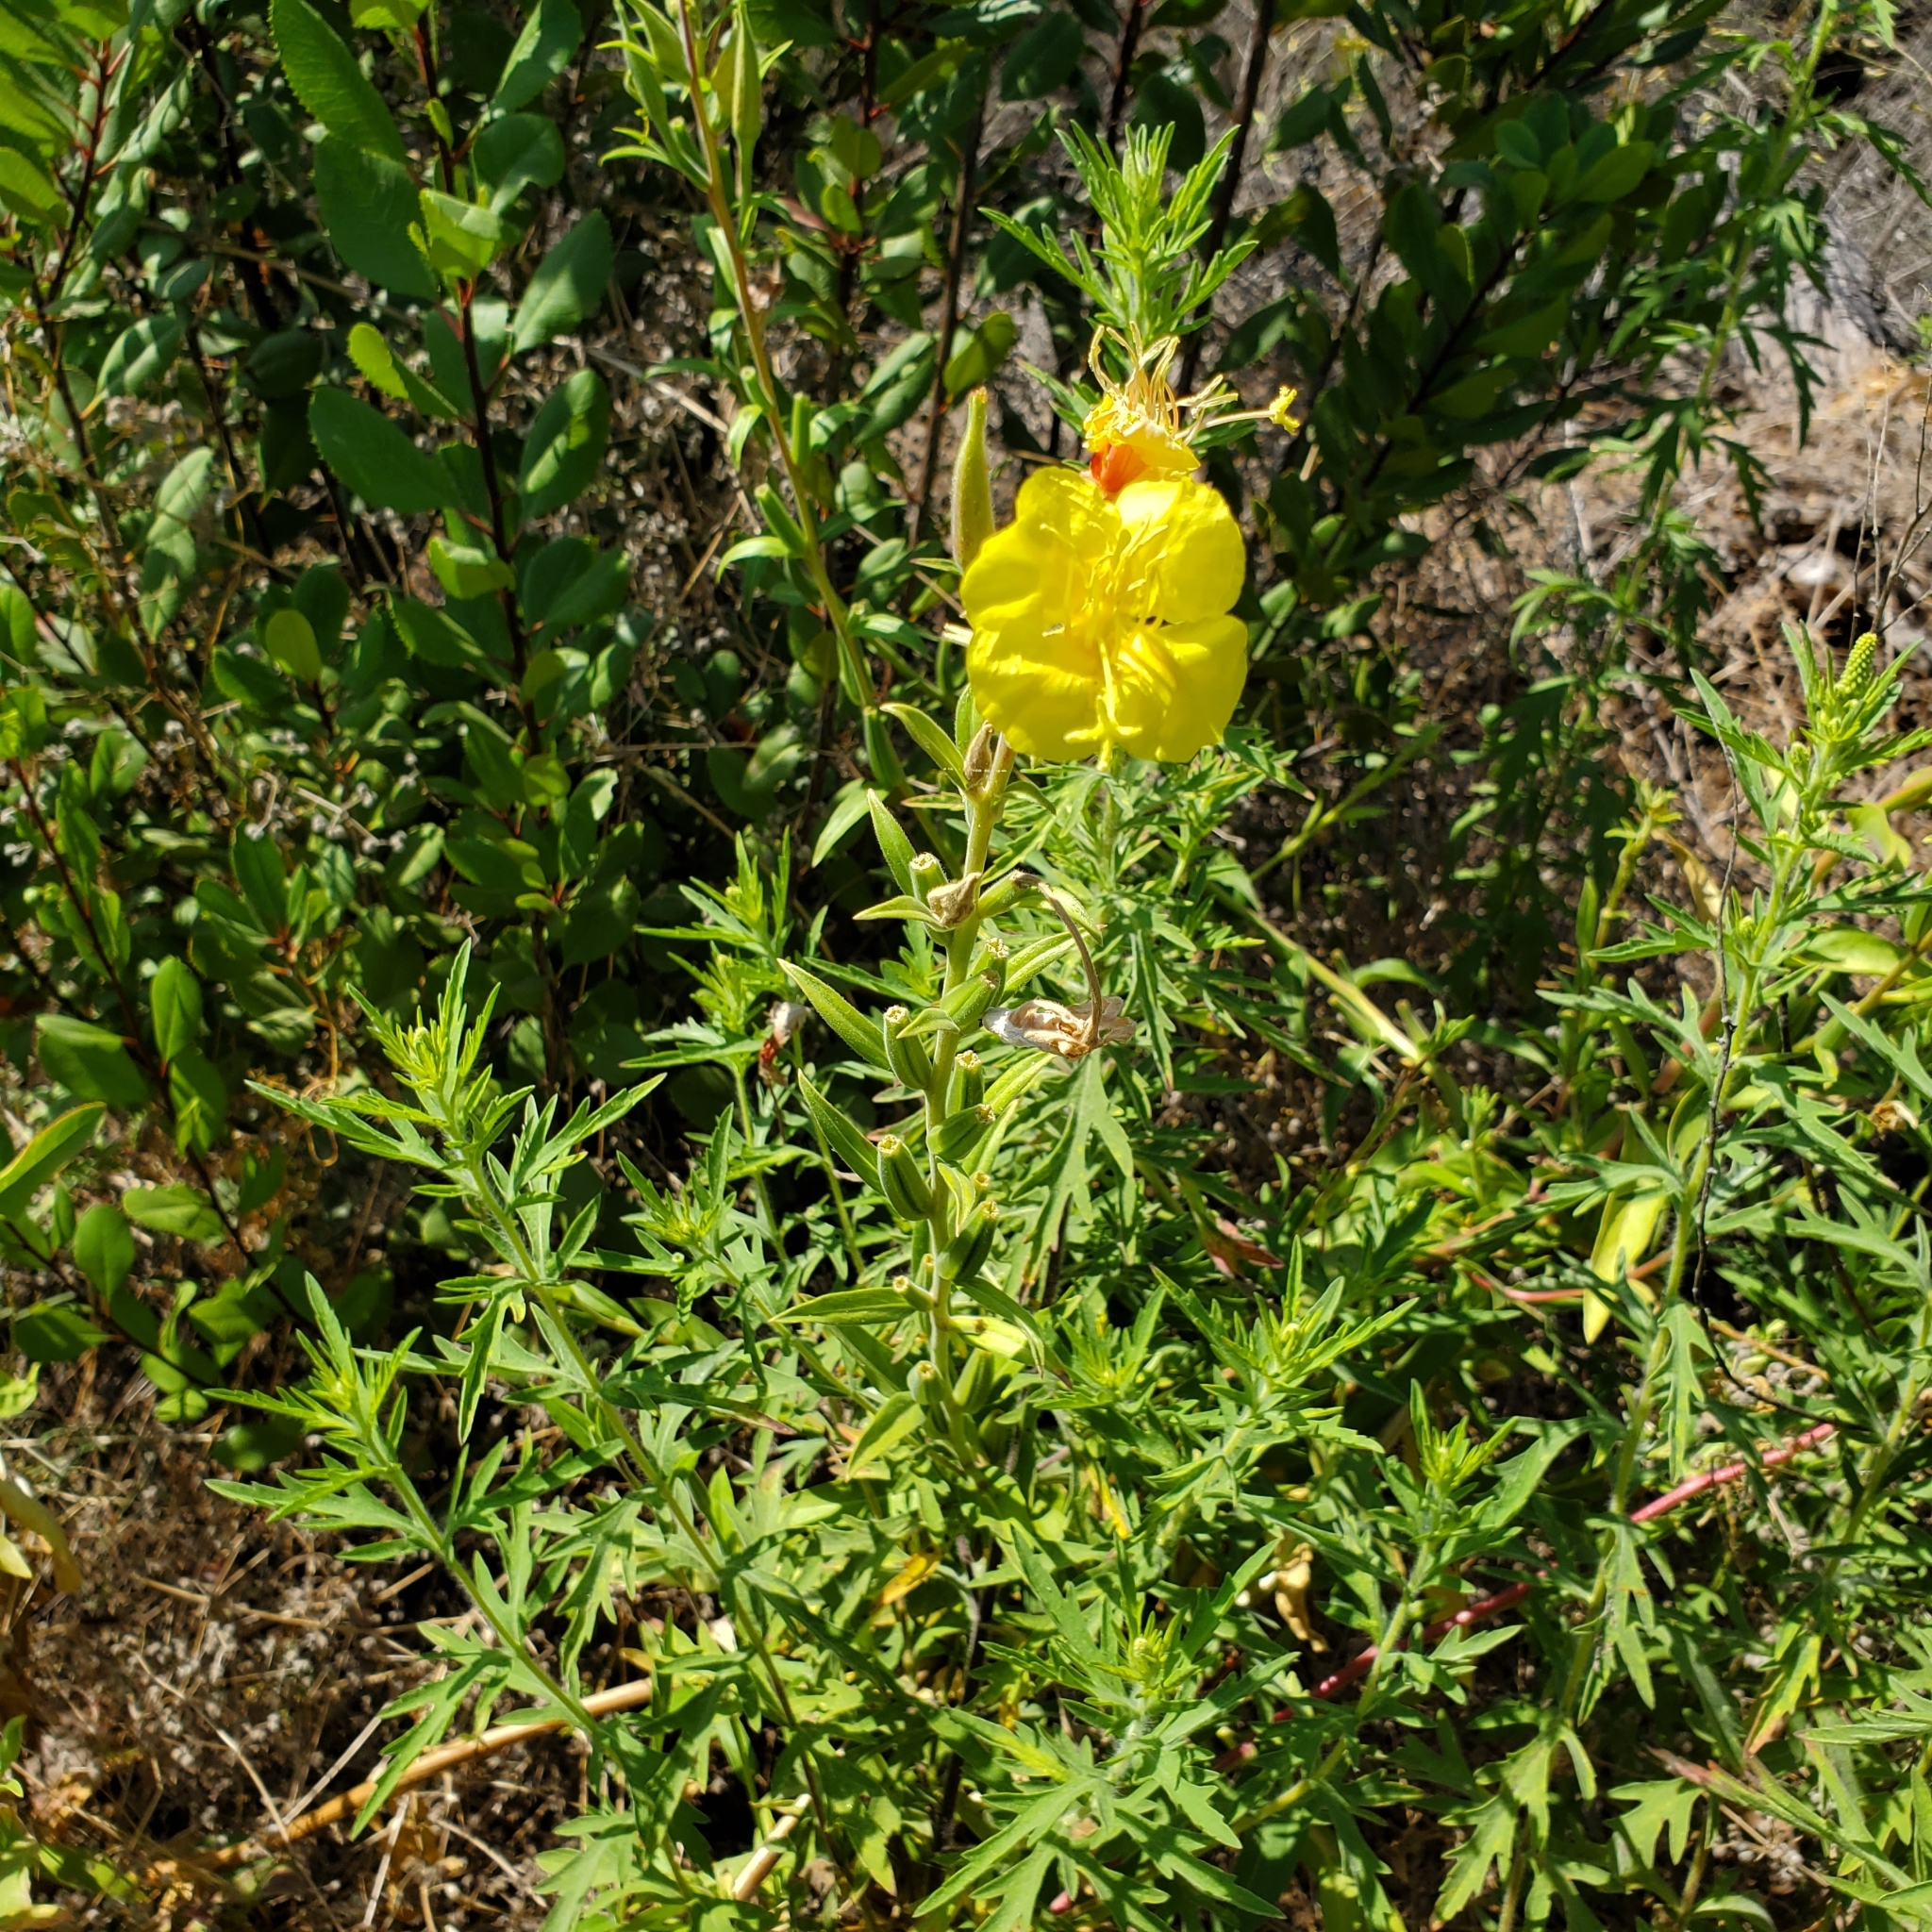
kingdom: Plantae
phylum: Tracheophyta
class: Magnoliopsida
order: Myrtales
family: Onagraceae
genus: Oenothera
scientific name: Oenothera elata
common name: Hooker's evening-primrose
